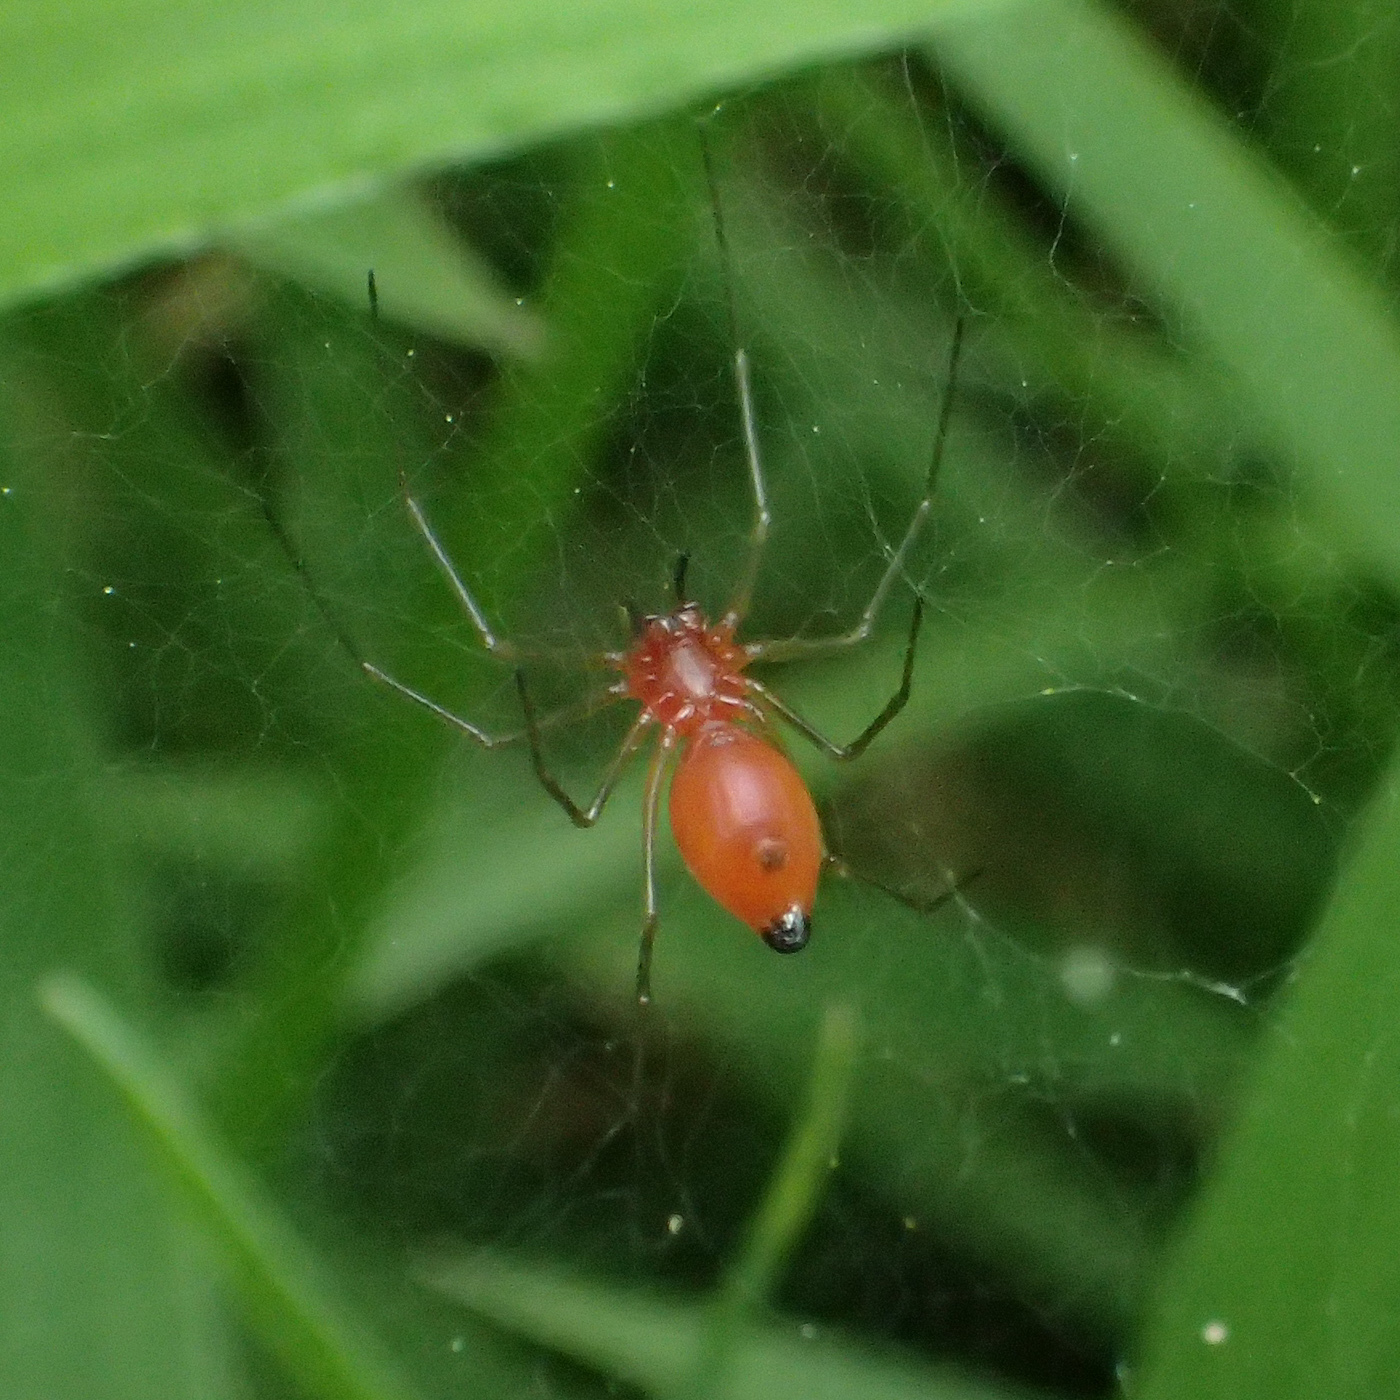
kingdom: Animalia
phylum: Arthropoda
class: Arachnida
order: Araneae
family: Linyphiidae
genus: Florinda
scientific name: Florinda coccinea
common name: Black-tailed red sheetweaver
